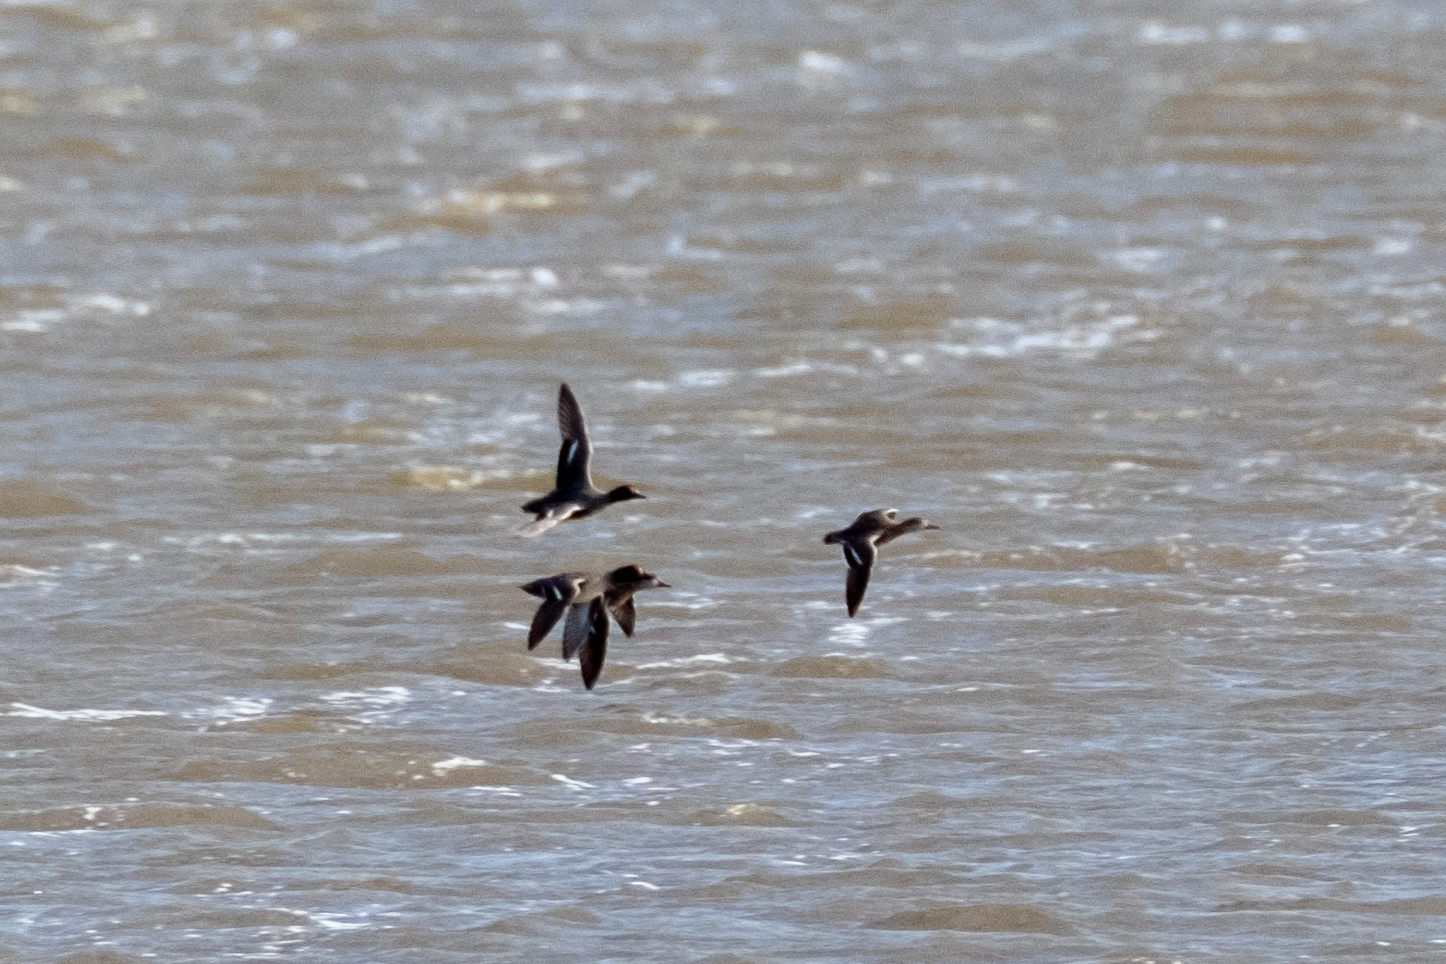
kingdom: Animalia
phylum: Chordata
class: Aves
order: Anseriformes
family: Anatidae
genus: Anas
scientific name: Anas crecca
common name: Eurasian teal
